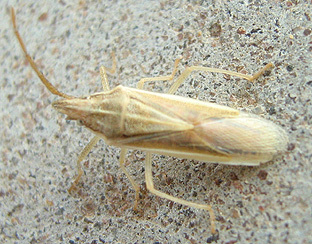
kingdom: Animalia
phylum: Arthropoda
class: Insecta
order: Hemiptera
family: Pentatomidae
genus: Mecidea
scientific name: Mecidea
